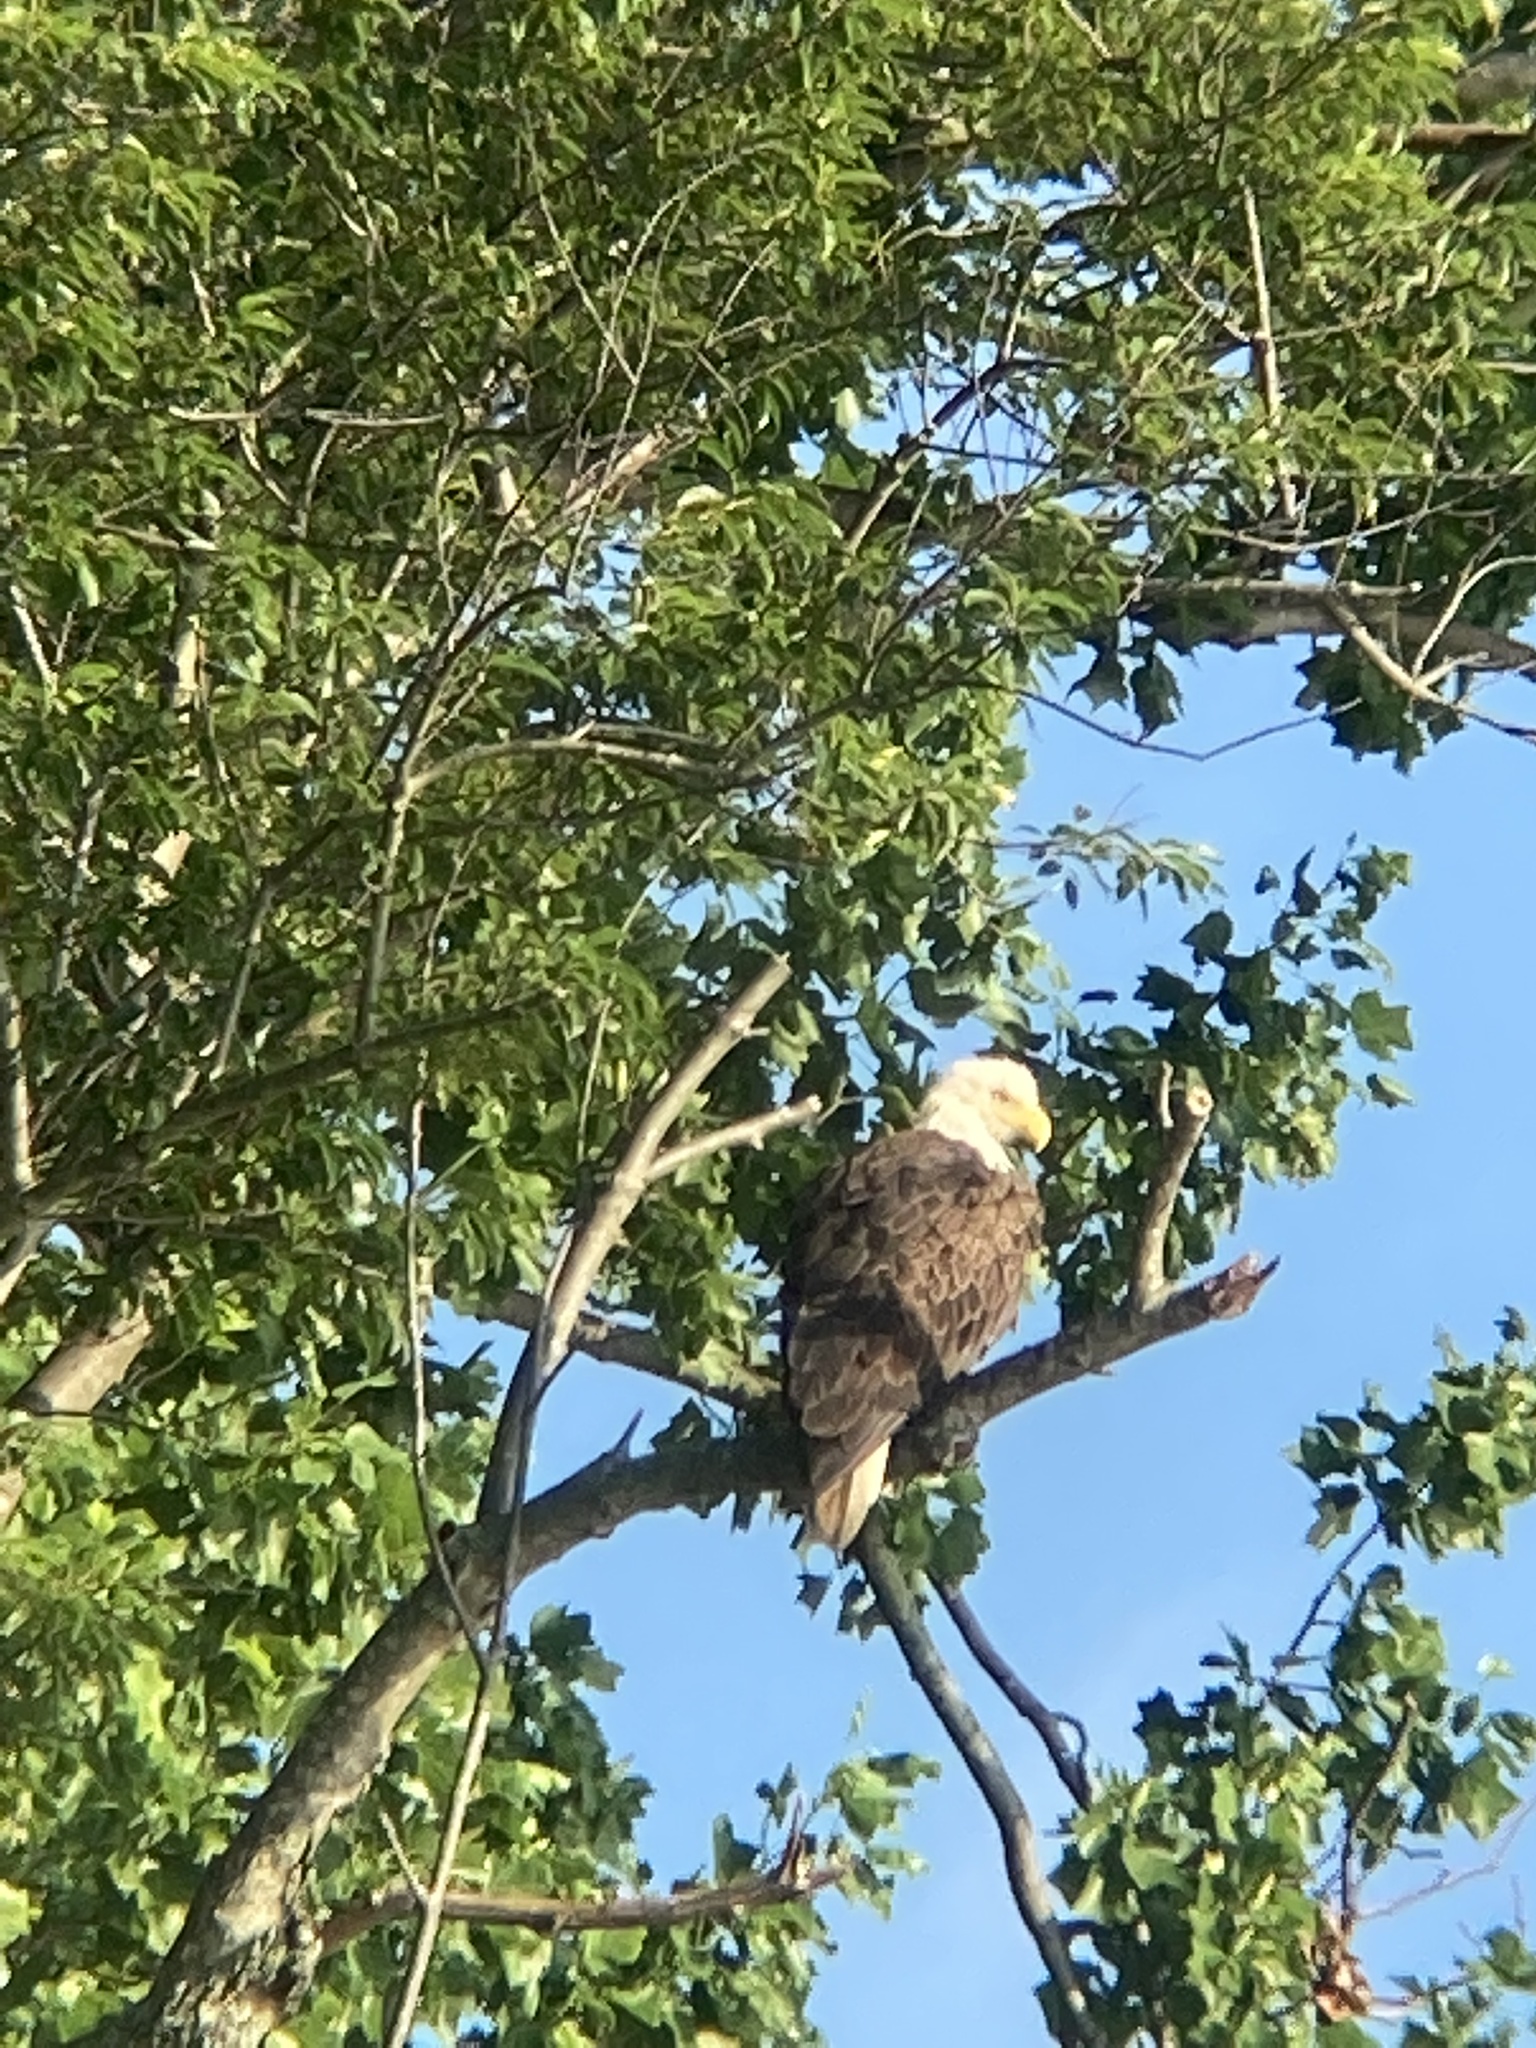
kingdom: Animalia
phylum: Chordata
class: Aves
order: Accipitriformes
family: Accipitridae
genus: Haliaeetus
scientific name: Haliaeetus leucocephalus
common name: Bald eagle
